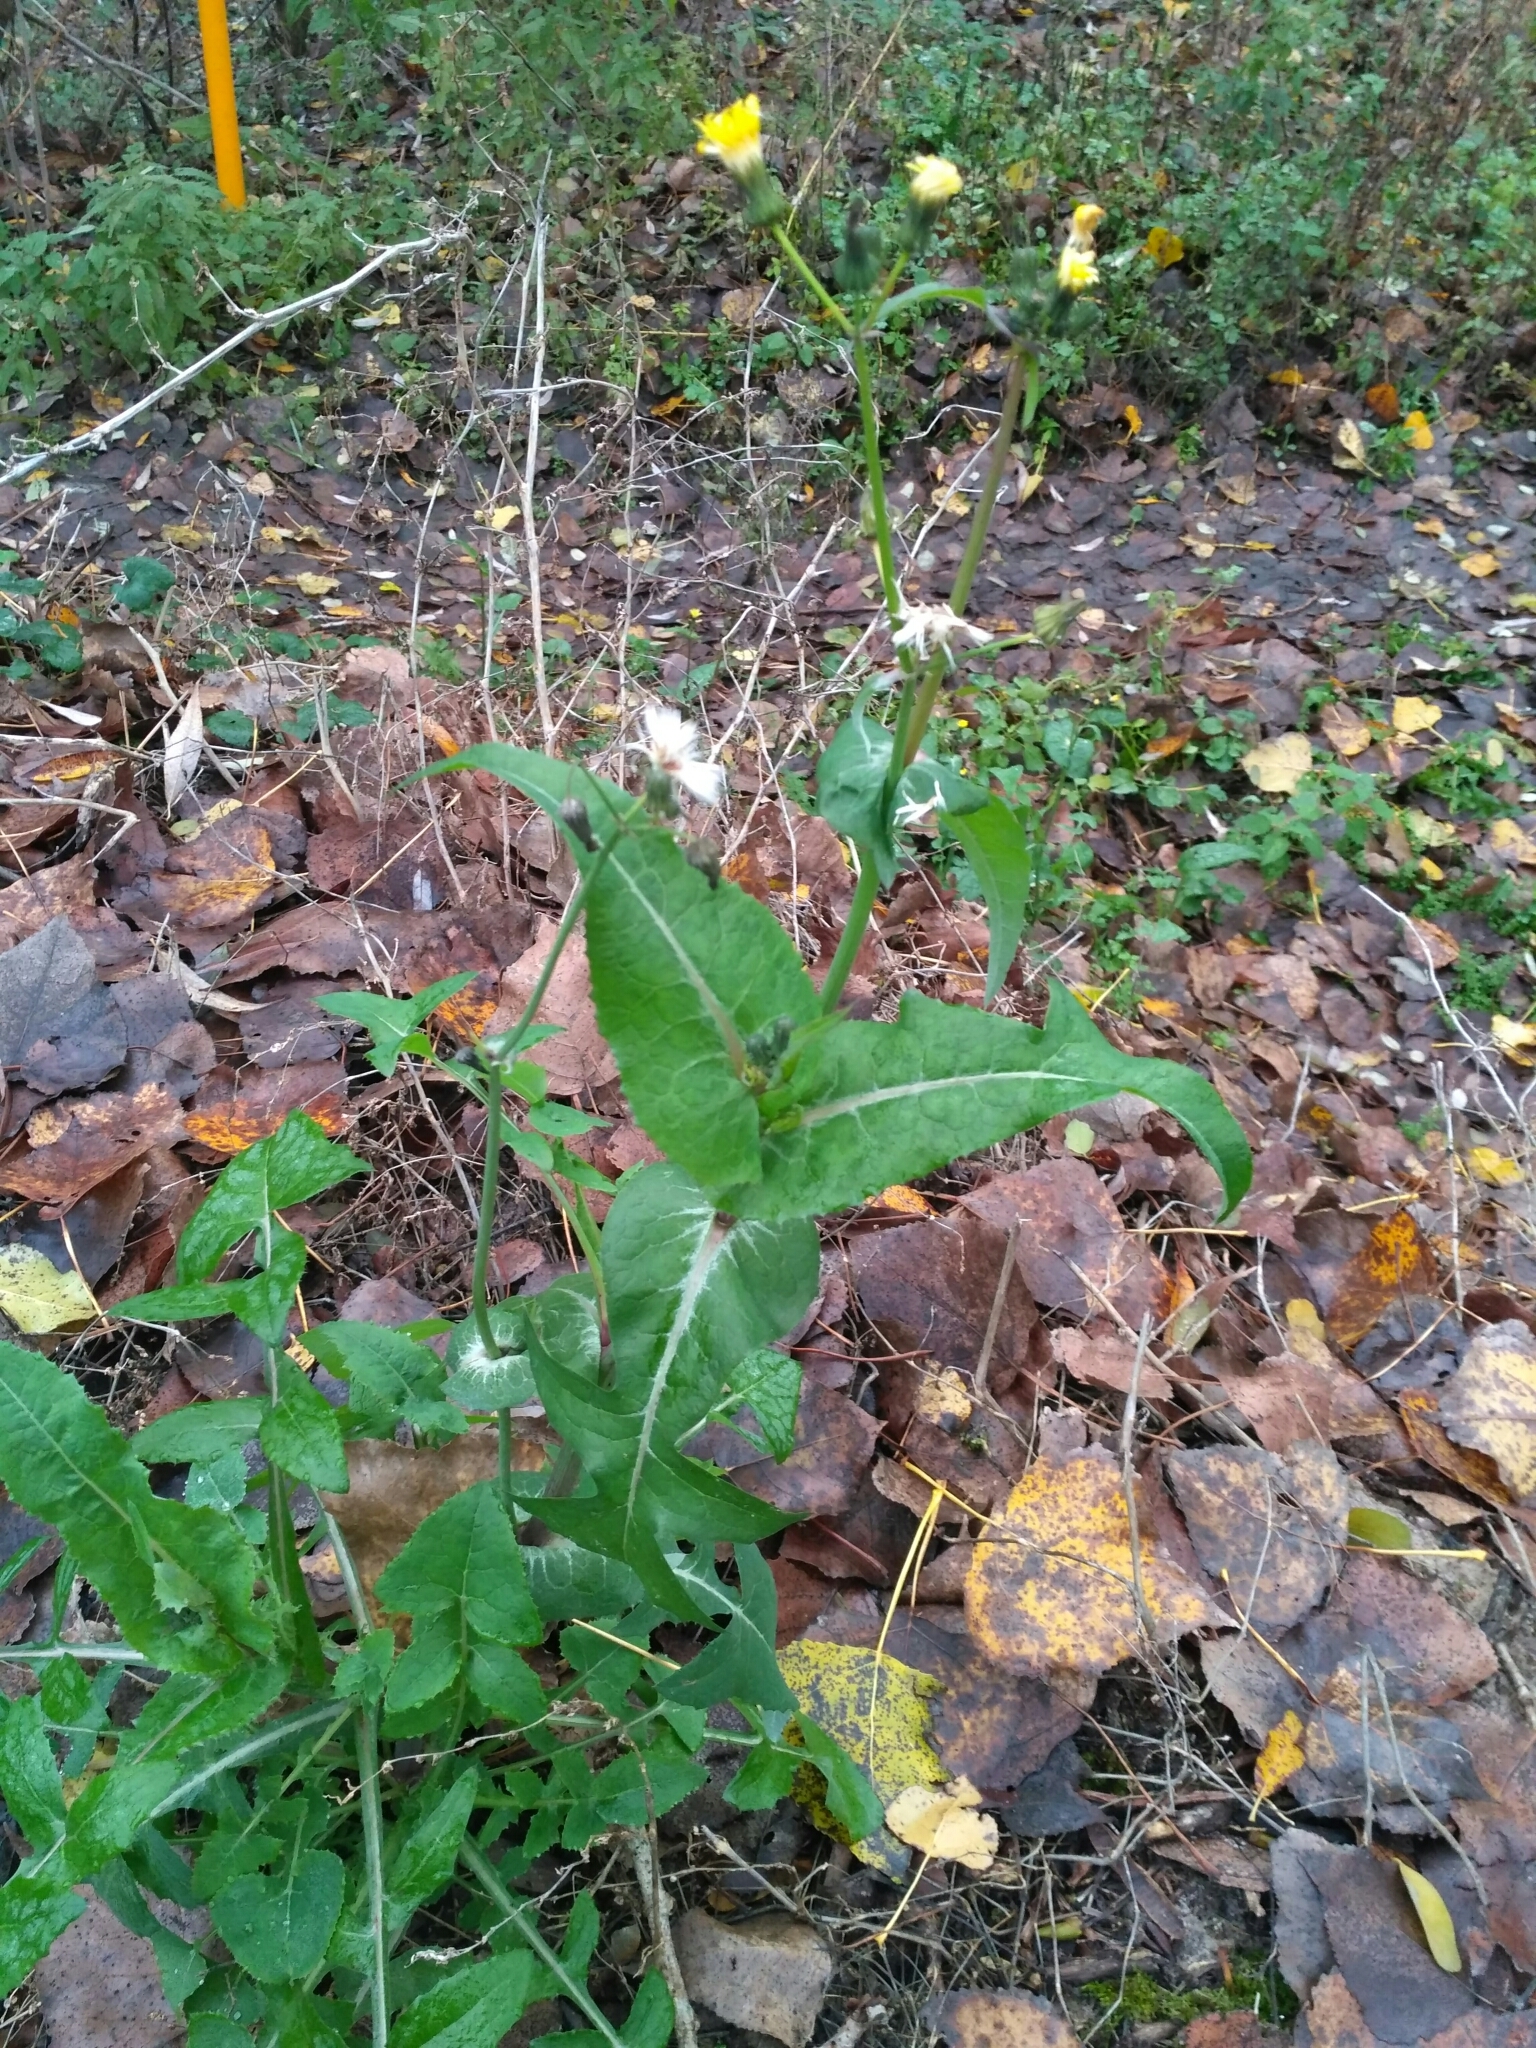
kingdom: Plantae
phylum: Tracheophyta
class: Magnoliopsida
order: Asterales
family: Asteraceae
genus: Sonchus
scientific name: Sonchus oleraceus
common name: Common sowthistle
